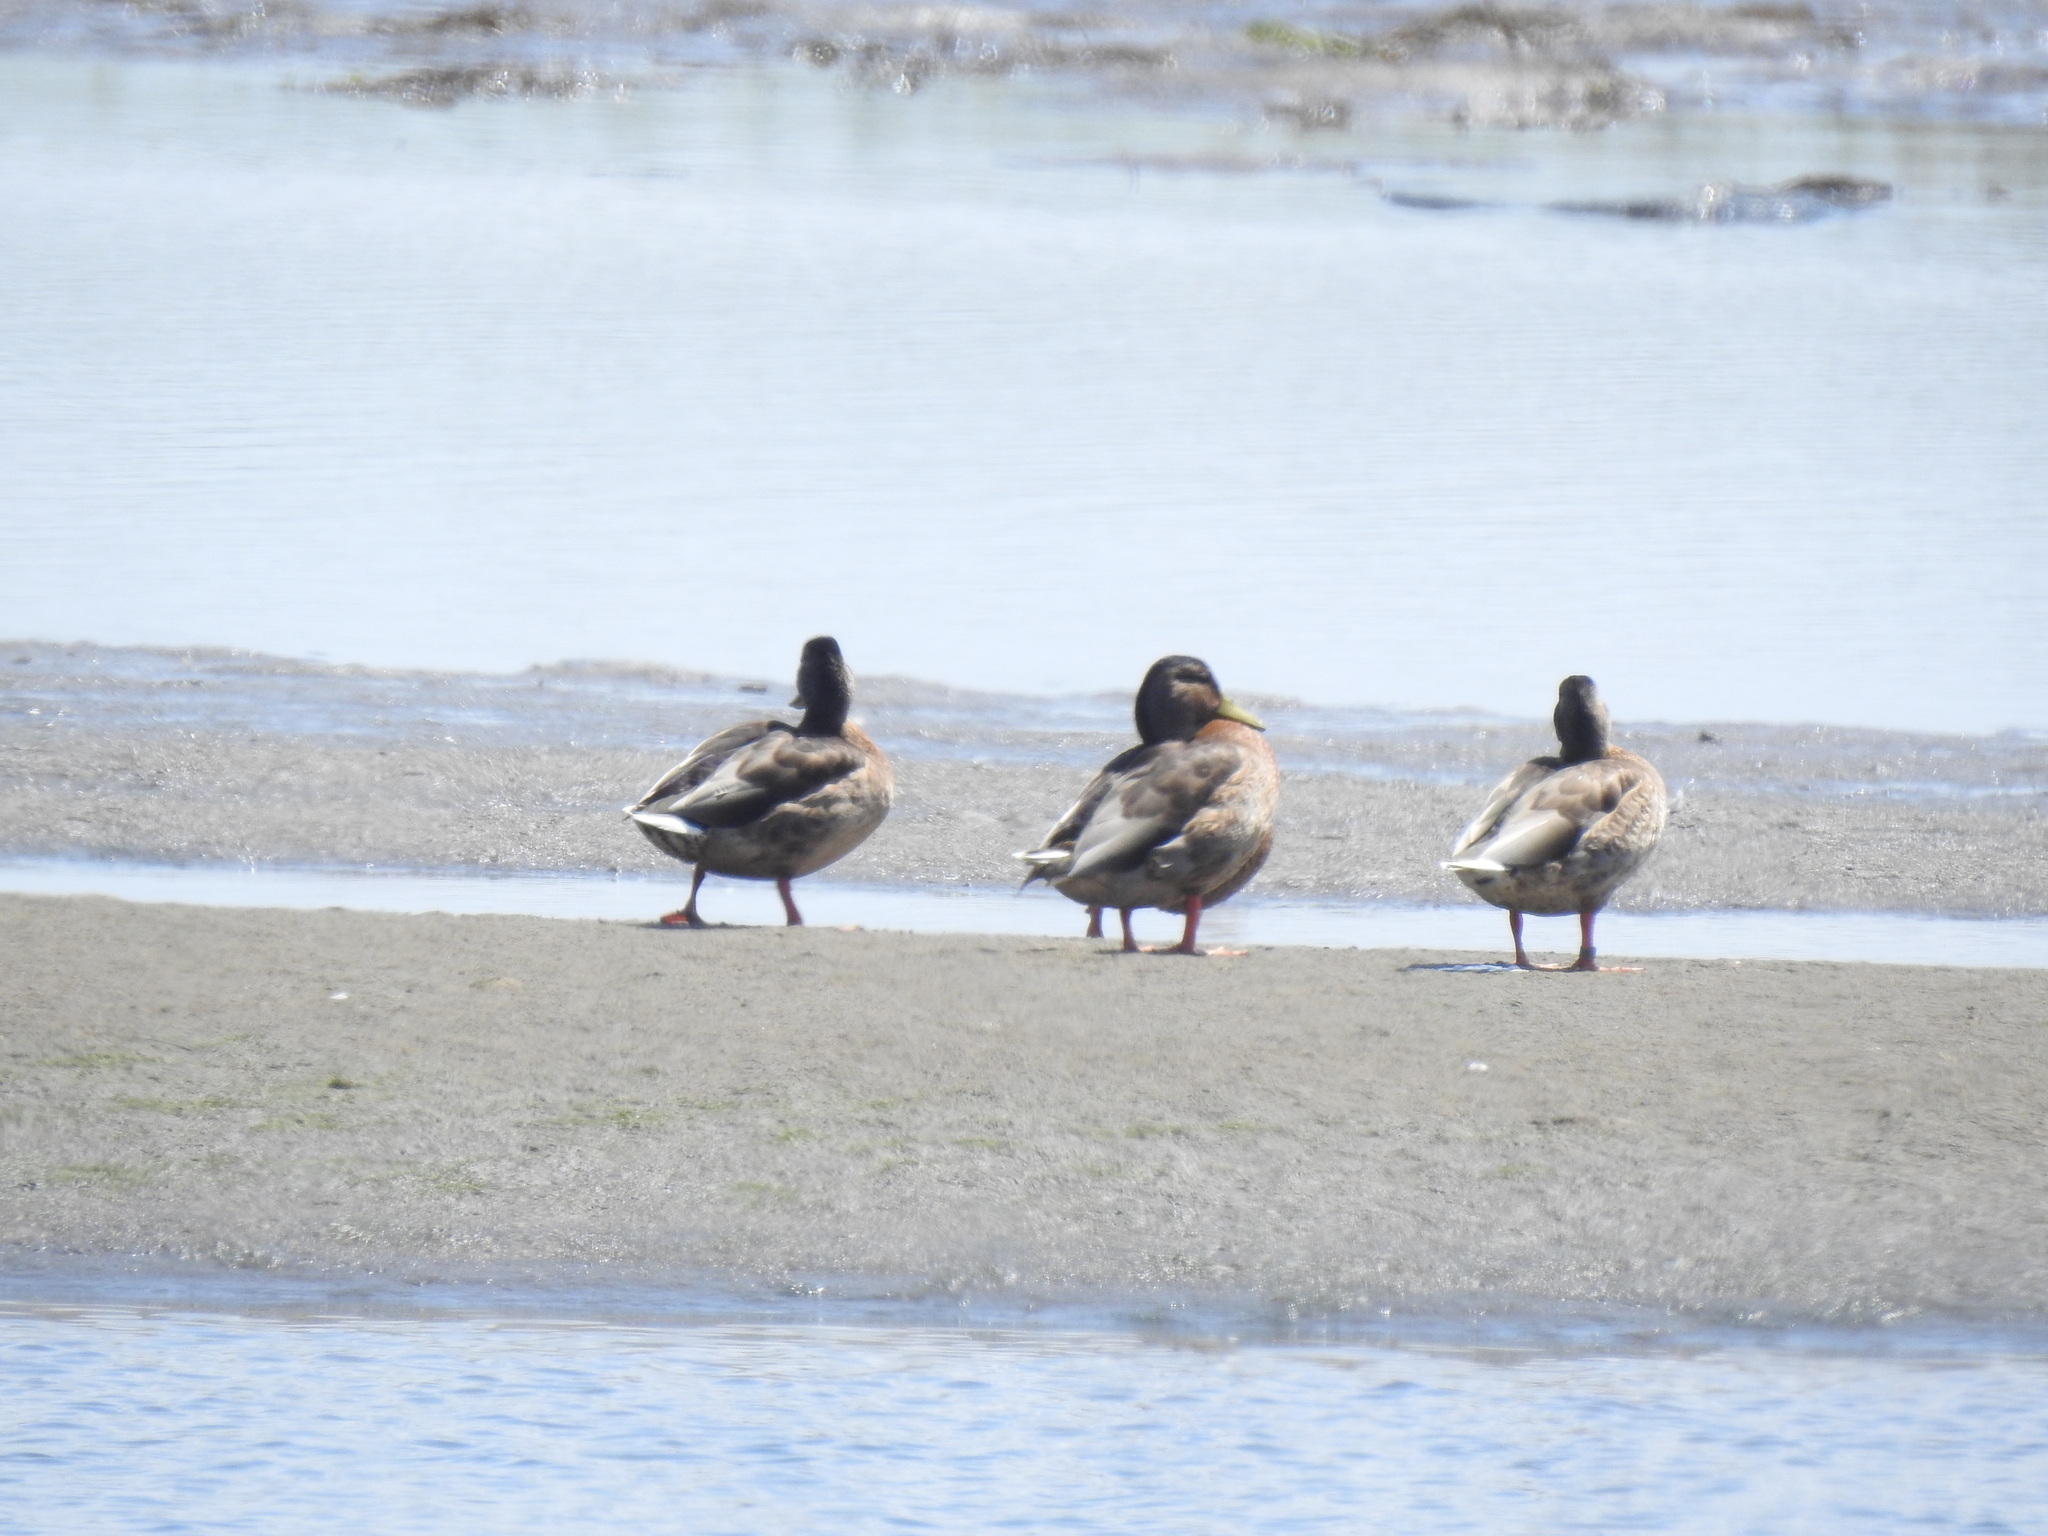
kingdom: Animalia
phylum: Chordata
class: Aves
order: Anseriformes
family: Anatidae
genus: Anas
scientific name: Anas platyrhynchos
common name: Mallard
